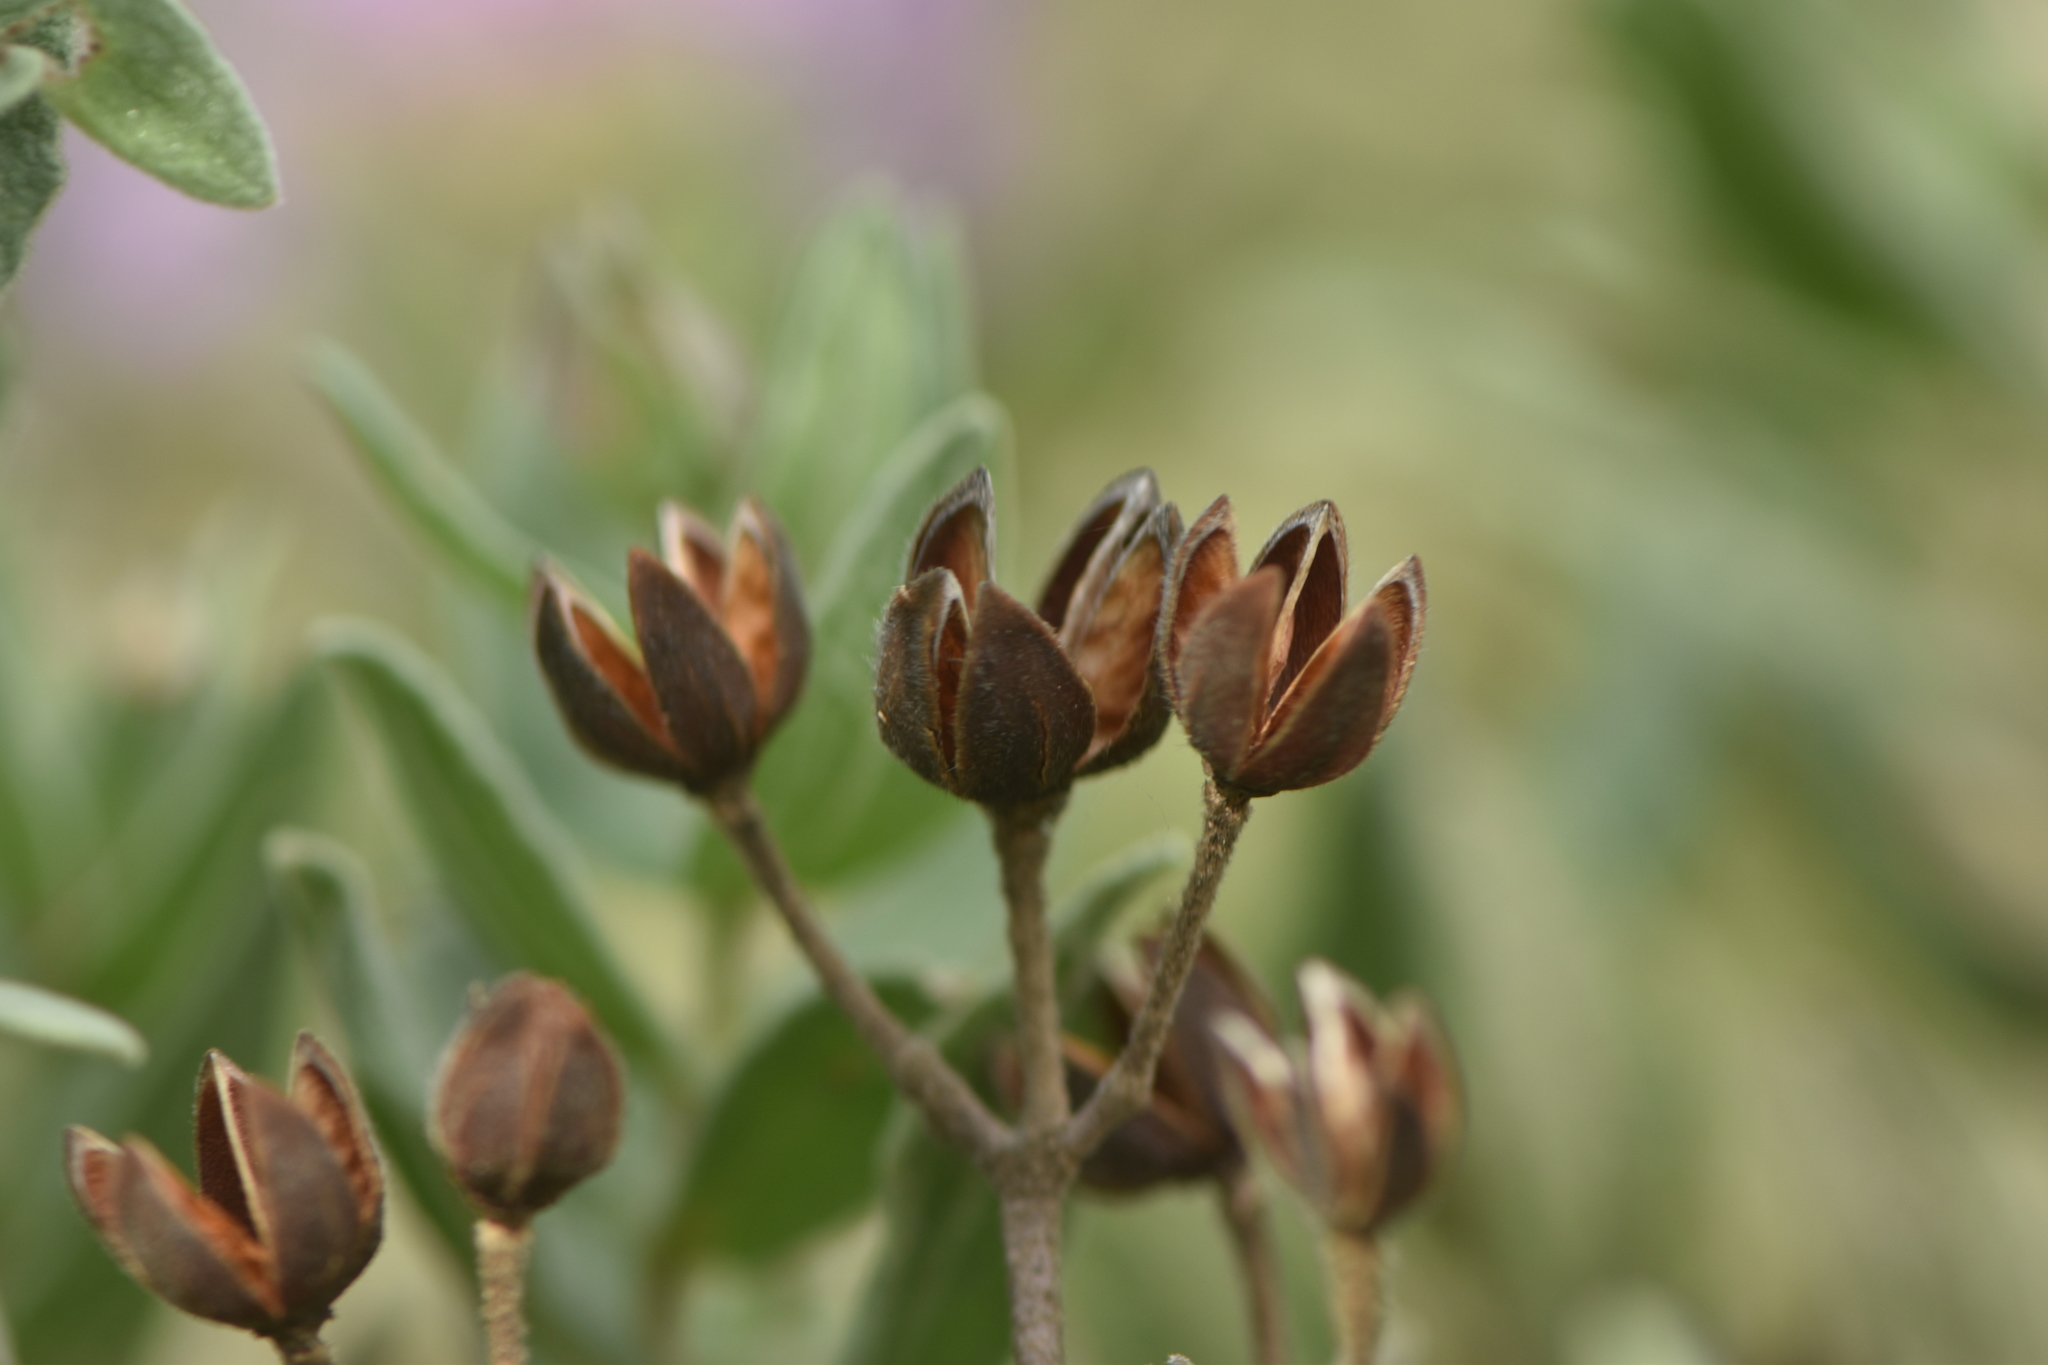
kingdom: Plantae
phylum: Tracheophyta
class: Magnoliopsida
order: Malvales
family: Cistaceae
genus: Cistus
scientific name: Cistus albidus
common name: White-leaf rock-rose
